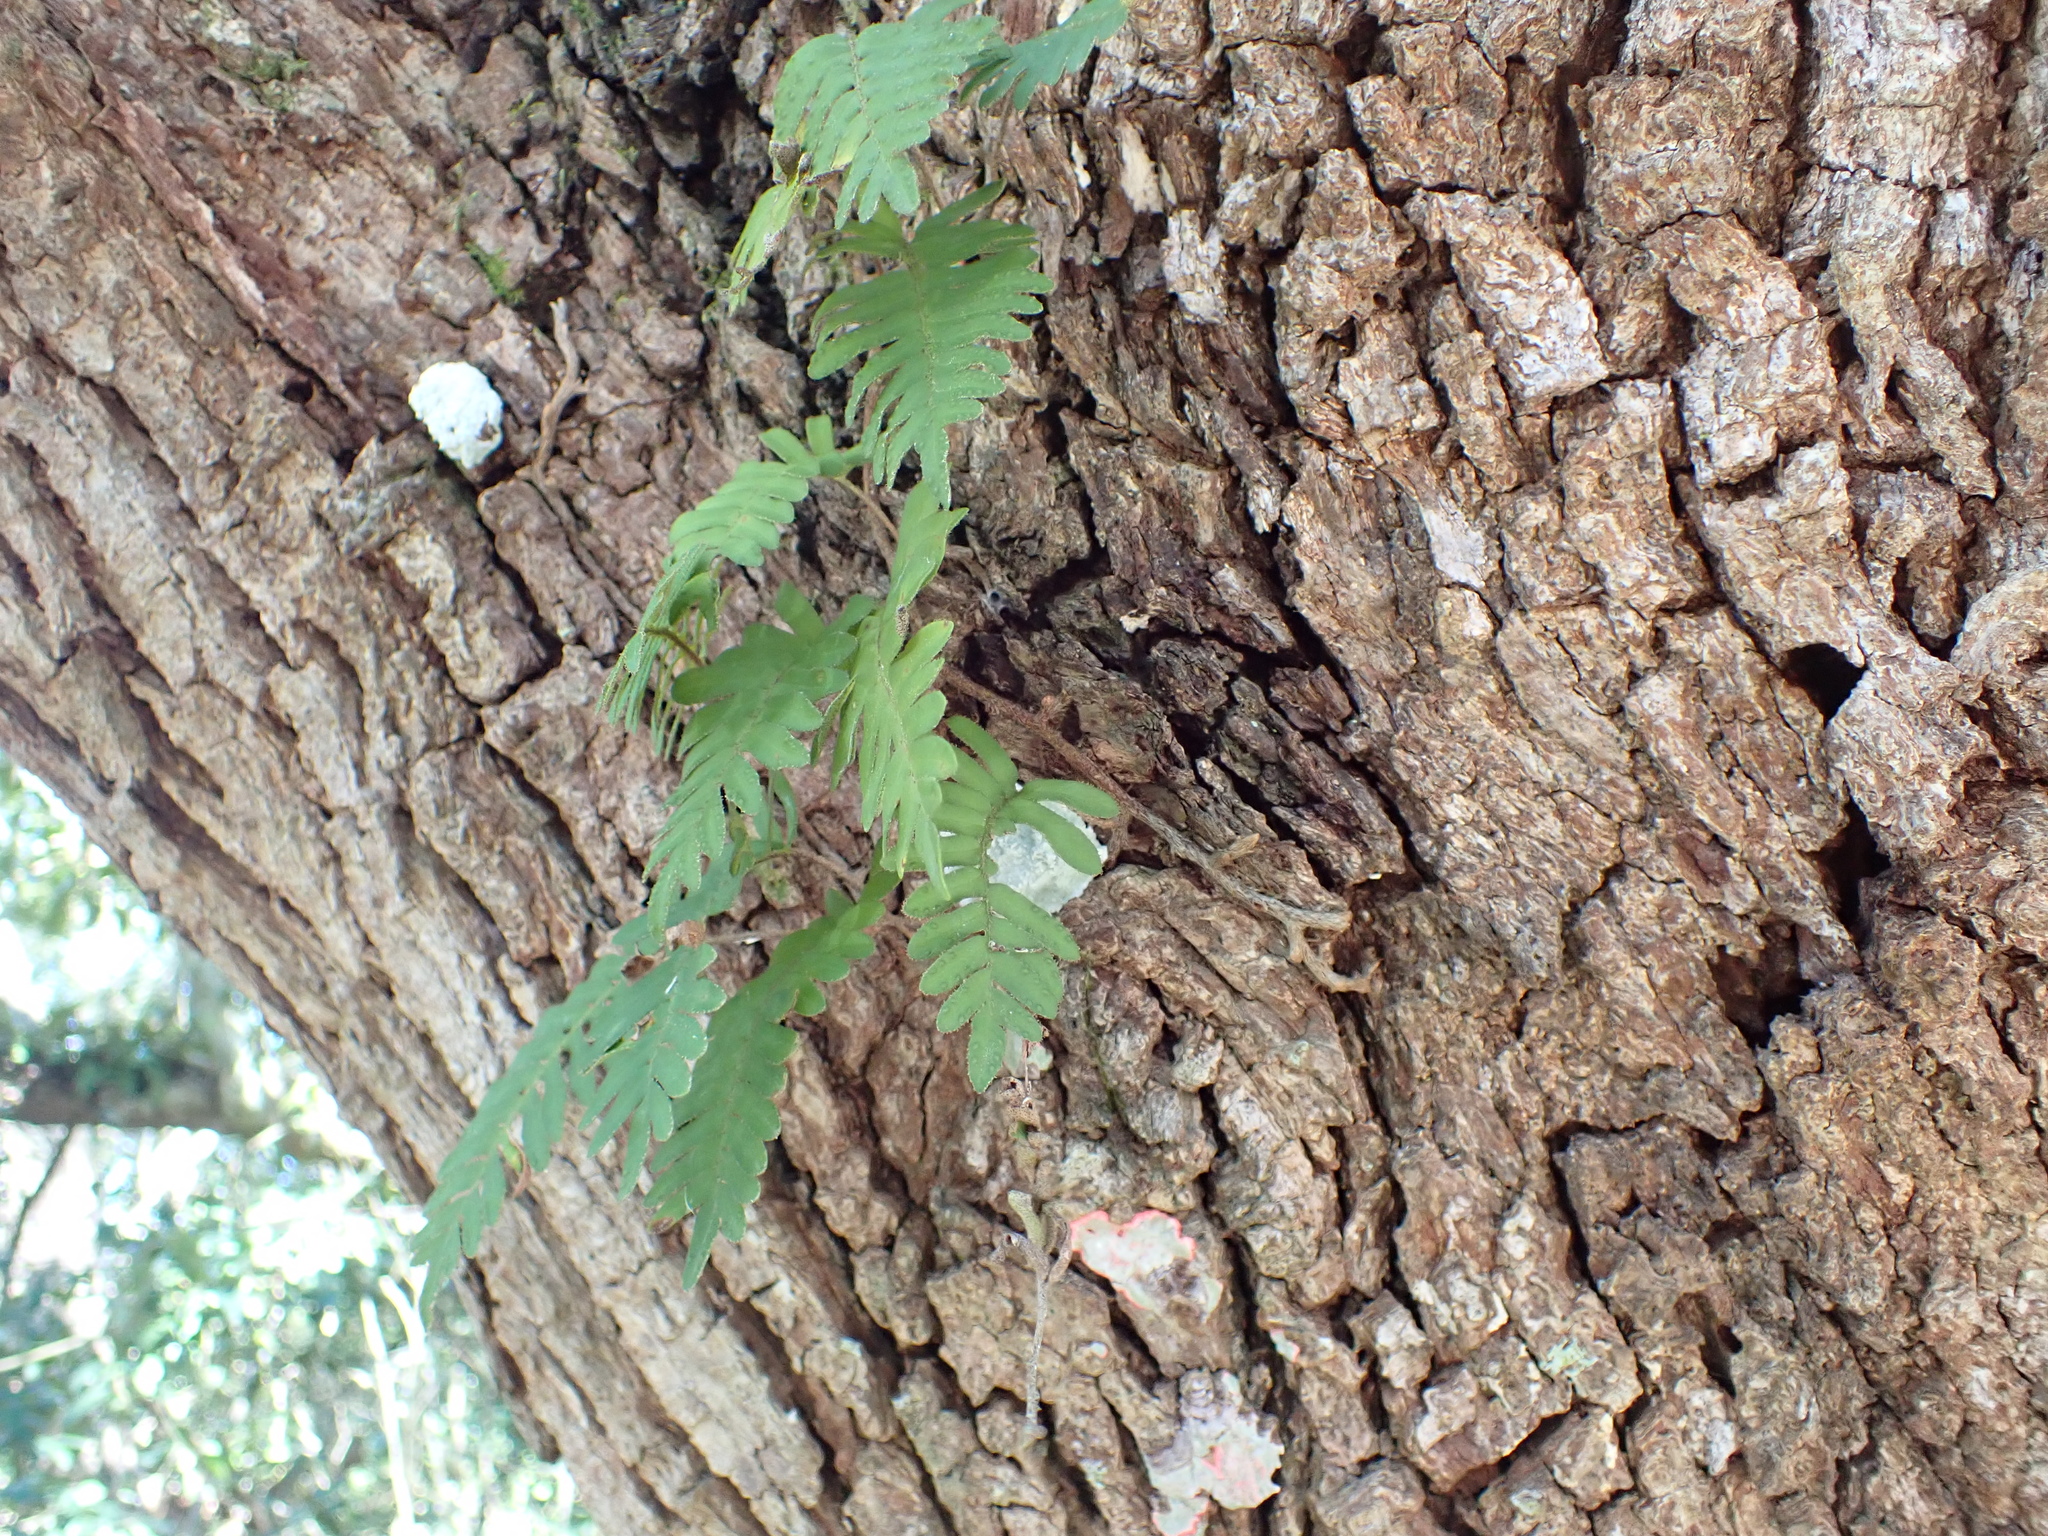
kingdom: Plantae
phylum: Tracheophyta
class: Polypodiopsida
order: Polypodiales
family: Polypodiaceae
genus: Pleopeltis
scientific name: Pleopeltis michauxiana
